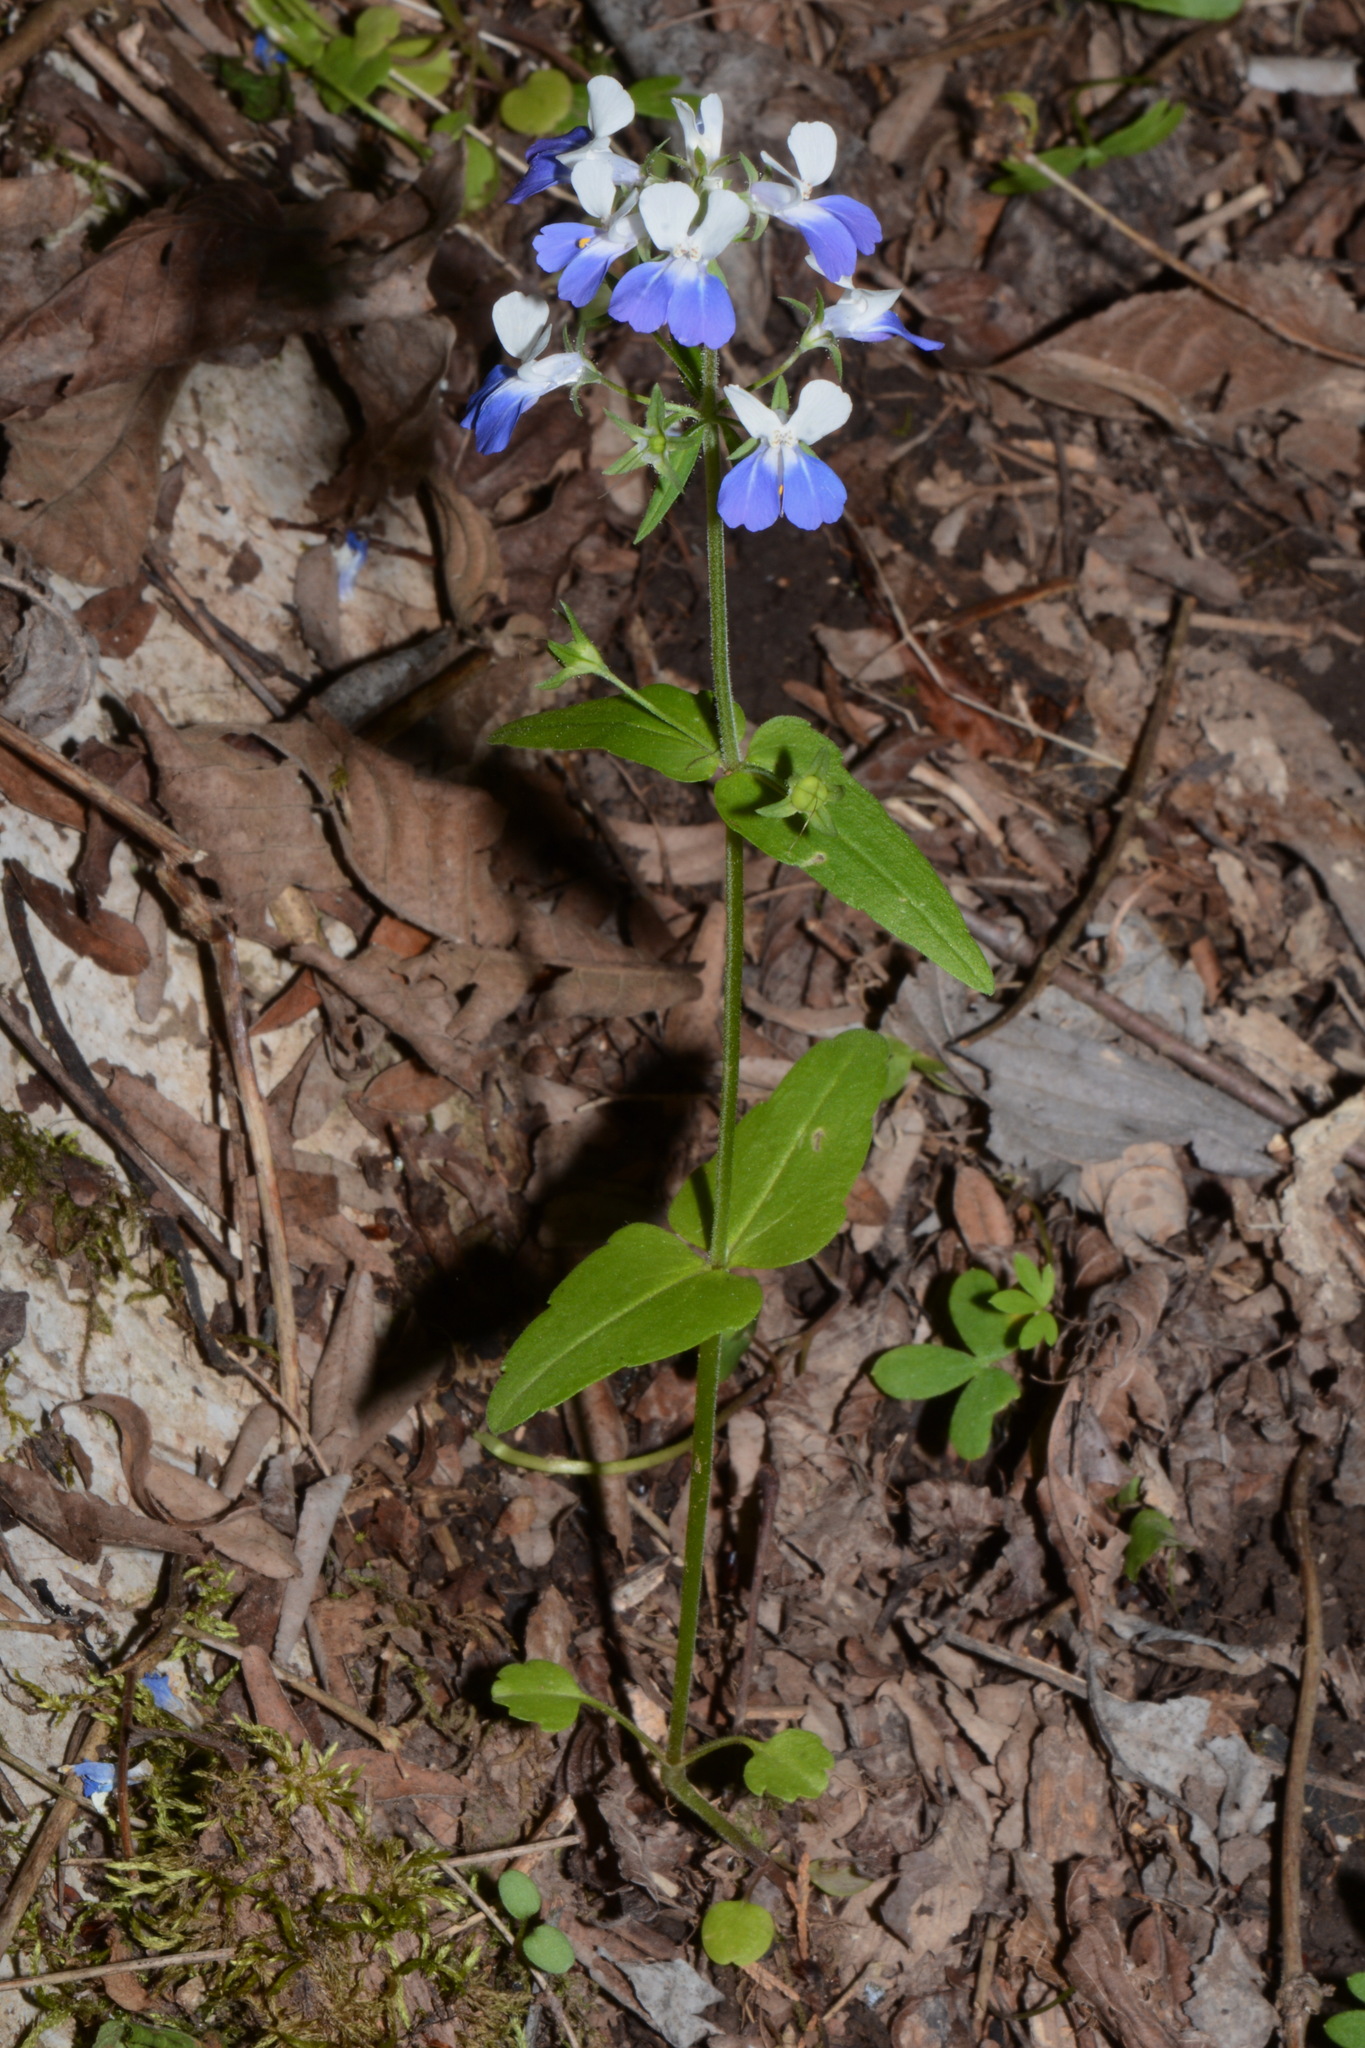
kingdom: Plantae
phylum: Tracheophyta
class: Magnoliopsida
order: Lamiales
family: Plantaginaceae
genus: Collinsia
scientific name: Collinsia verna
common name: Broad-leaved collinsia
